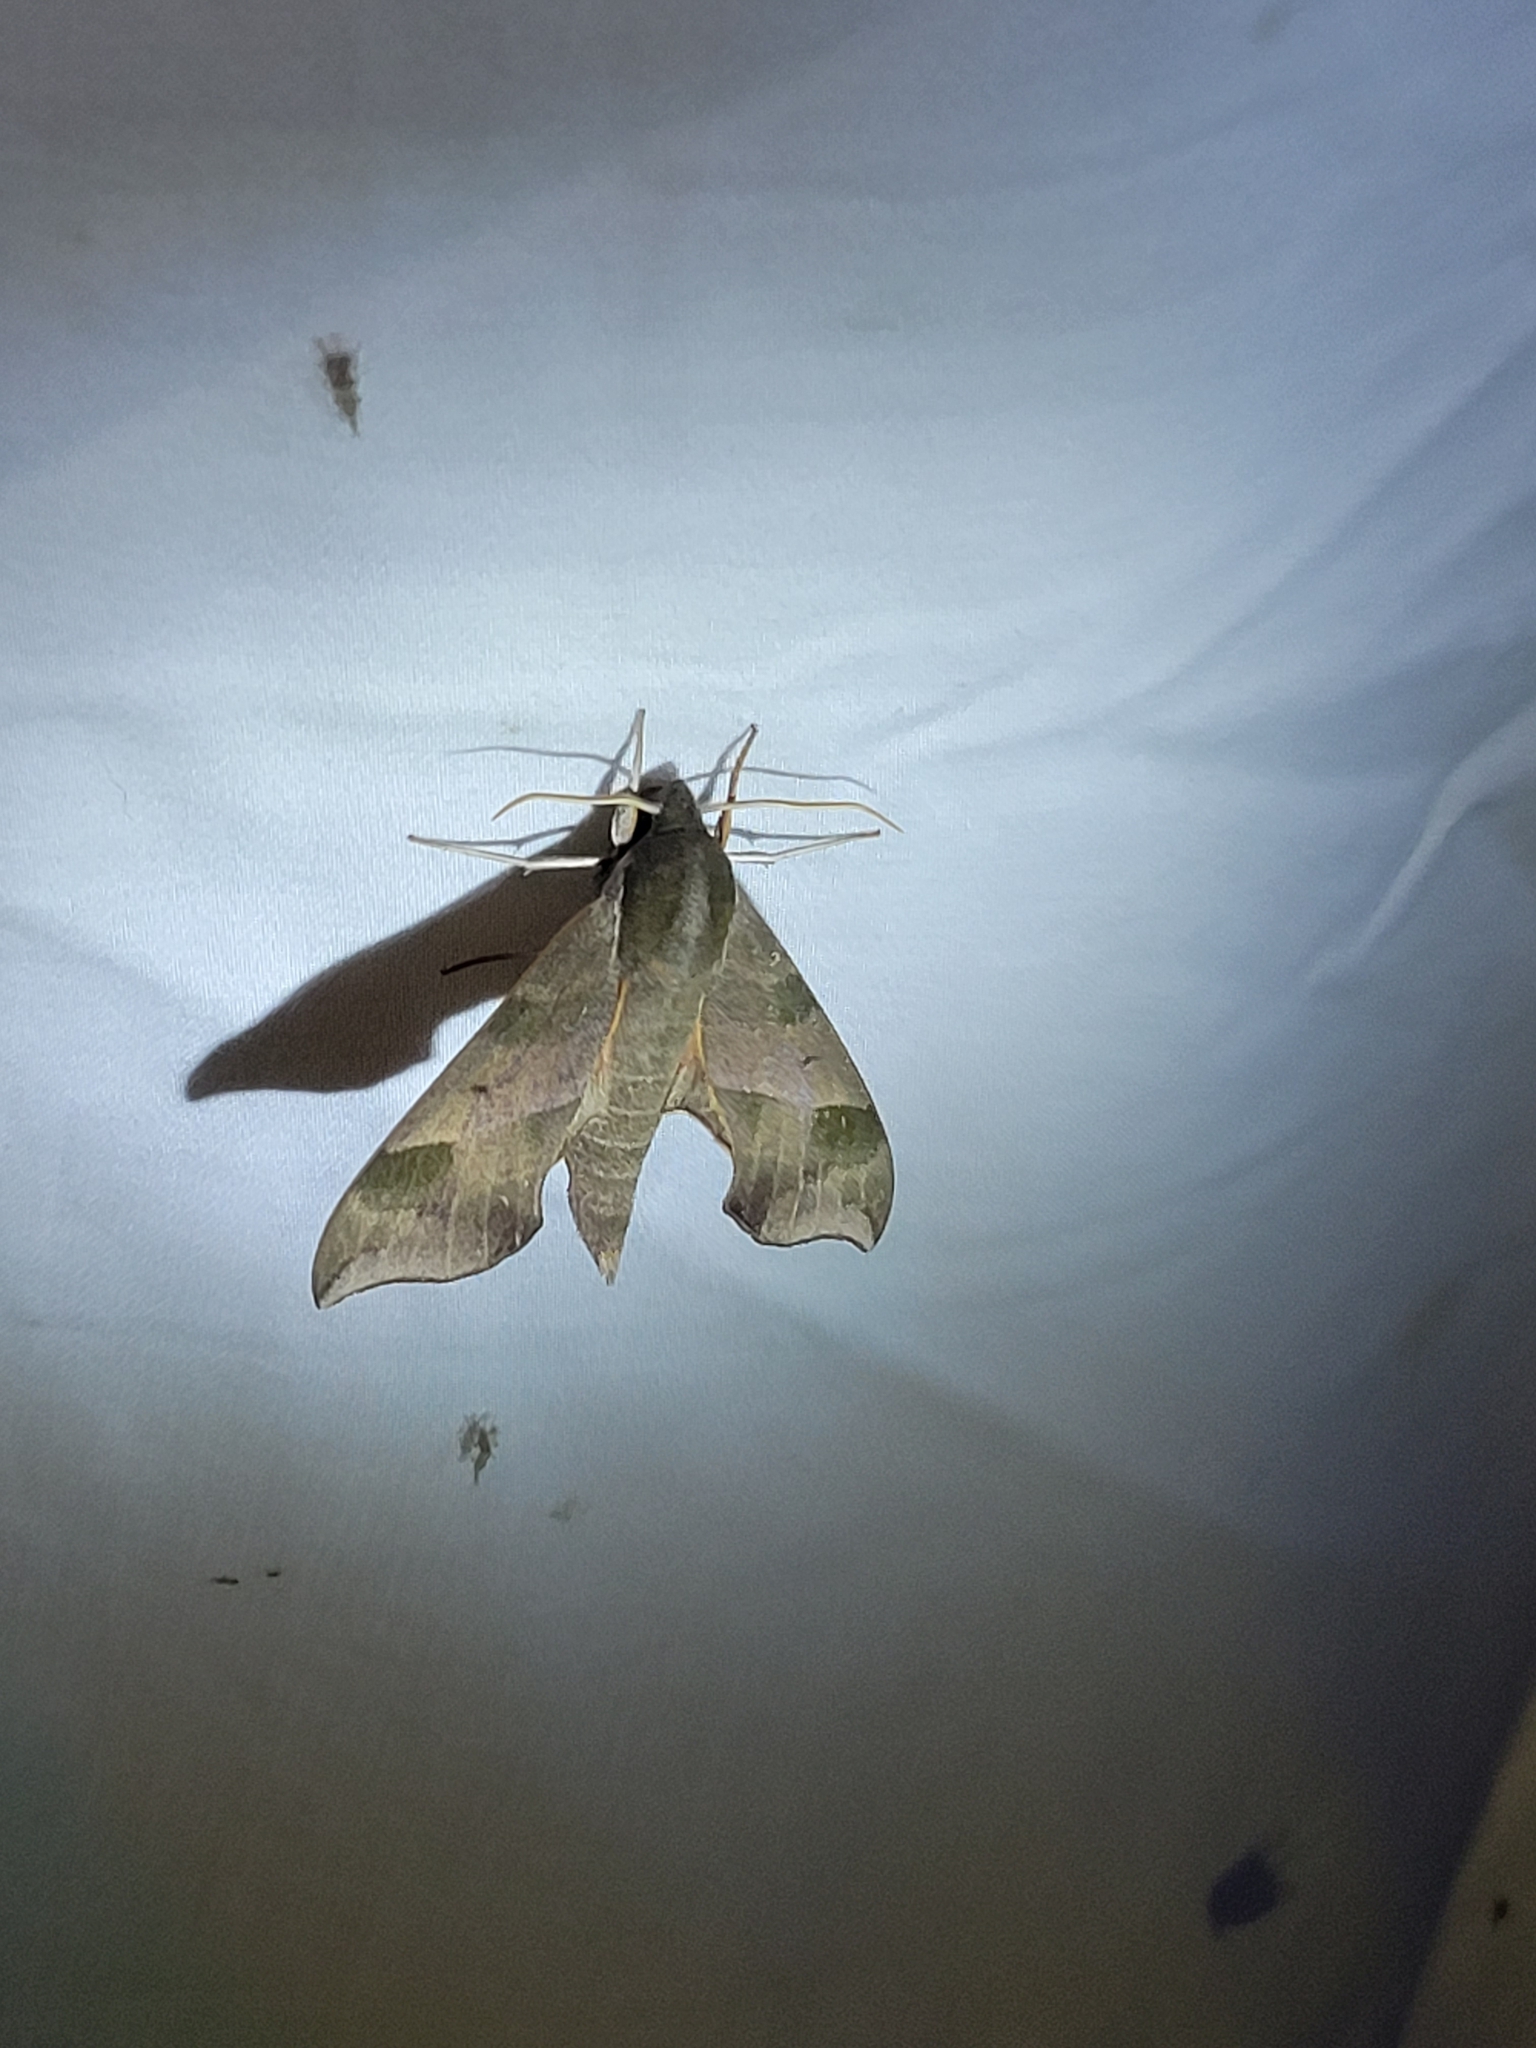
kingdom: Animalia
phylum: Arthropoda
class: Insecta
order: Lepidoptera
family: Sphingidae
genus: Darapsa
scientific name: Darapsa myron
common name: Hog sphinx
